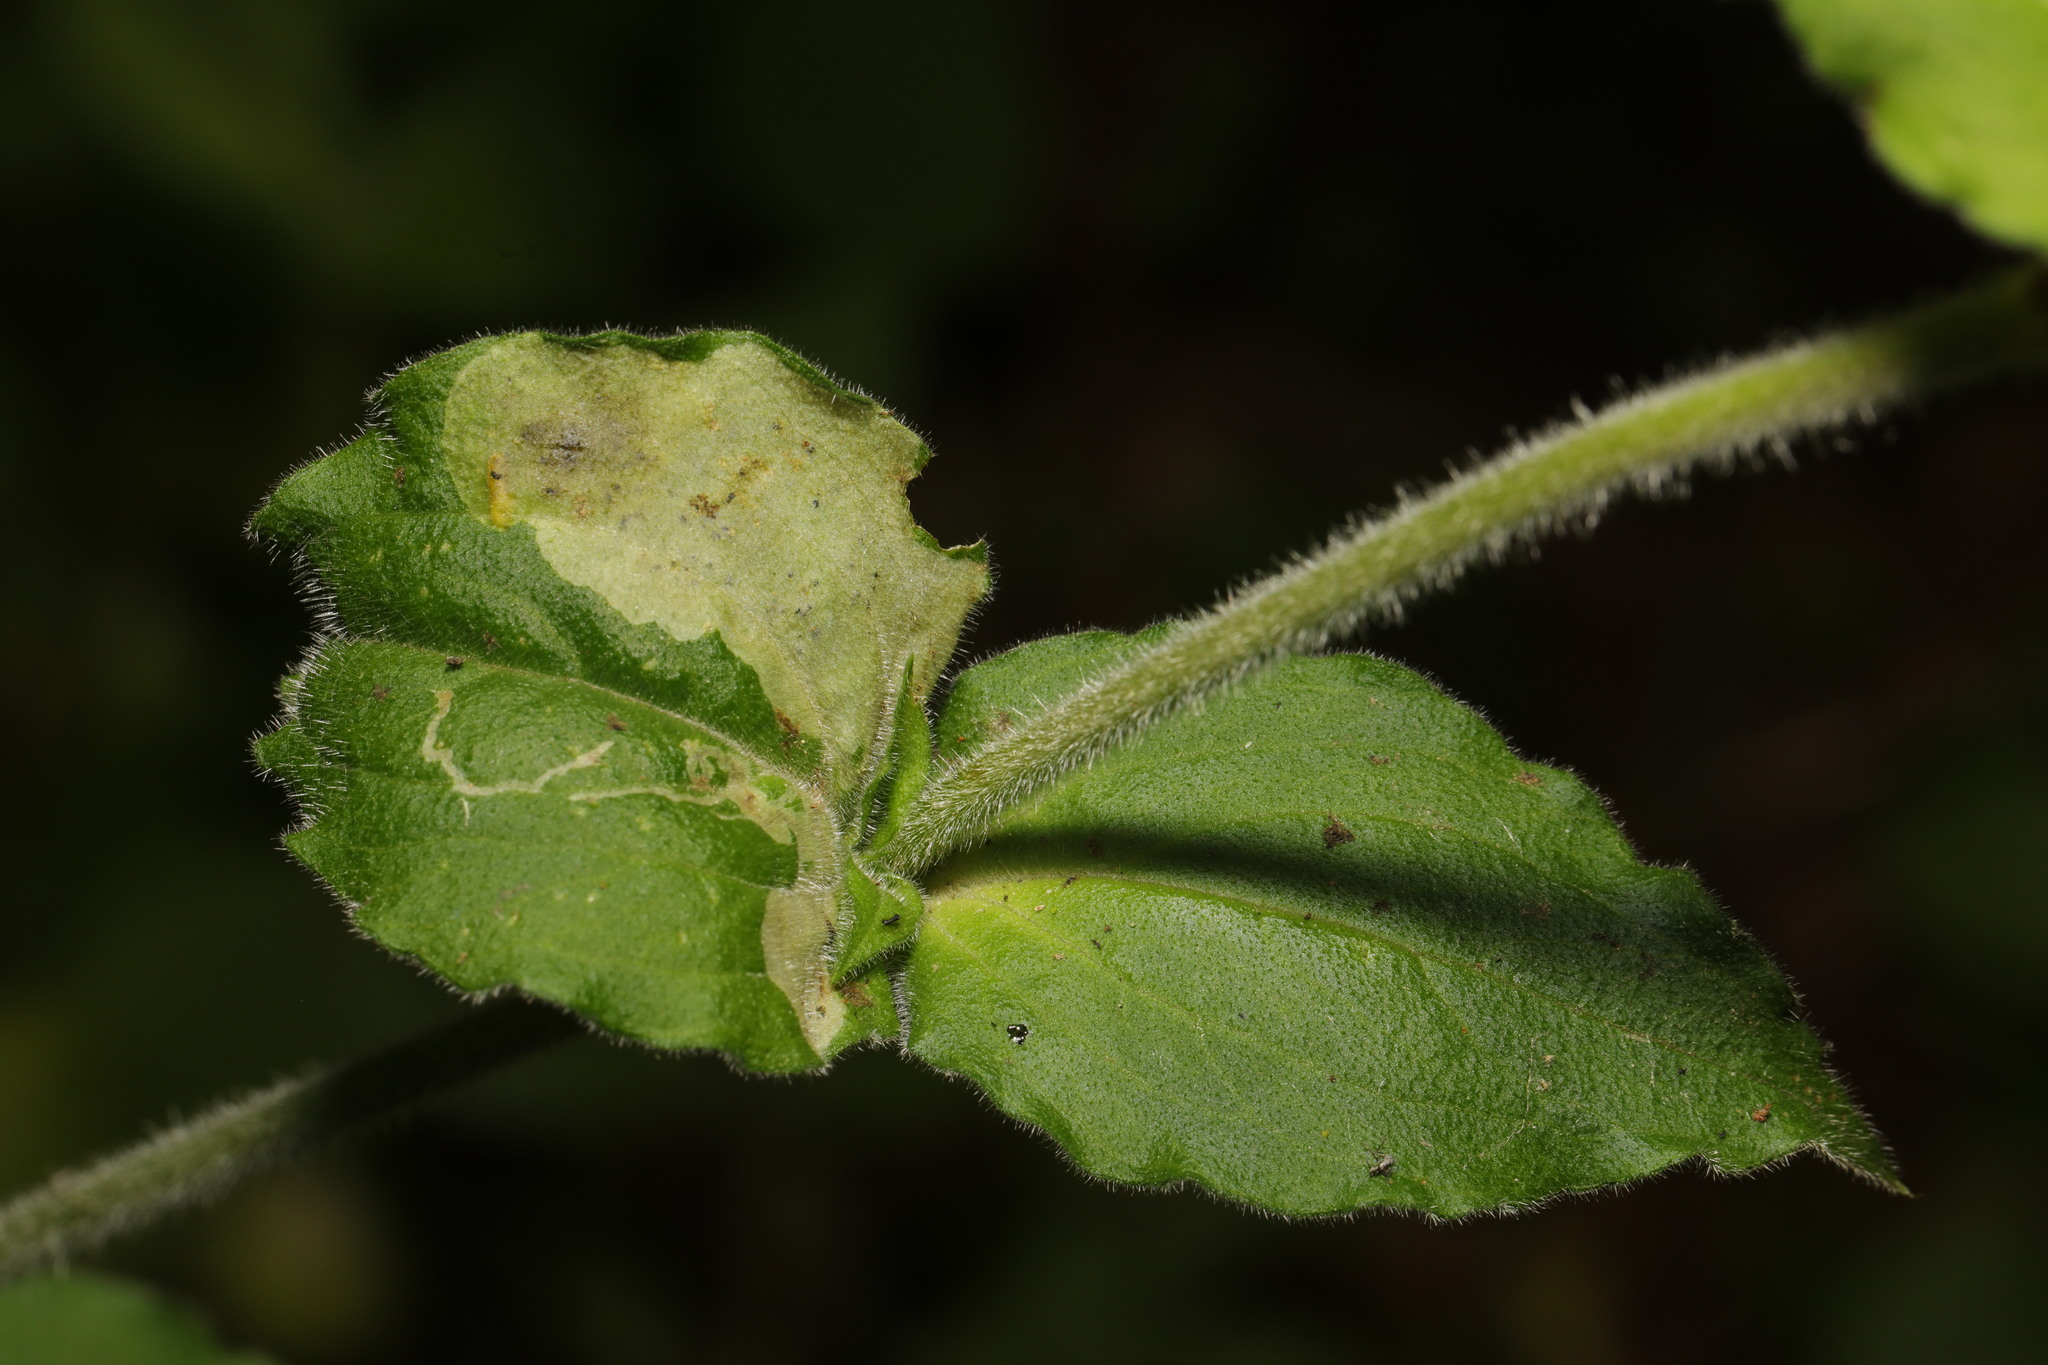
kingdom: Animalia
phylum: Arthropoda
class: Insecta
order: Diptera
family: Agromyzidae
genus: Amauromyza
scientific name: Amauromyza flavifrons
